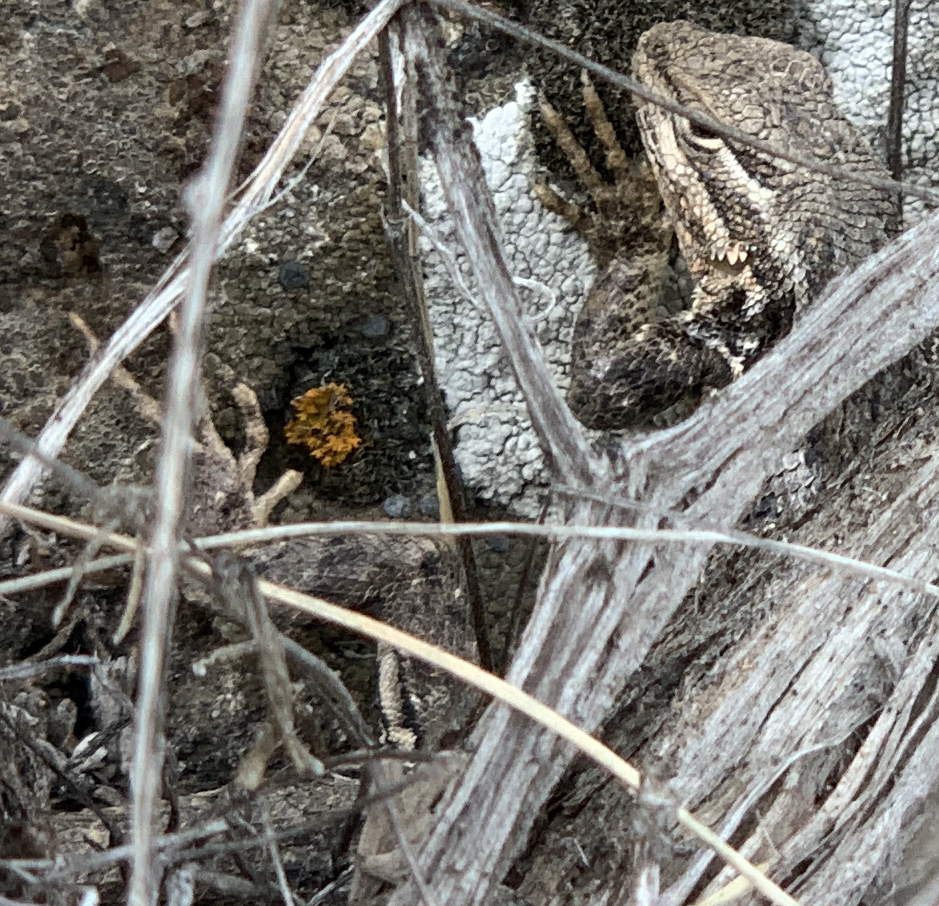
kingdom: Animalia
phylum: Chordata
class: Squamata
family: Phrynosomatidae
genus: Sceloporus
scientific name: Sceloporus graciosus
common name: Sagebrush lizard
